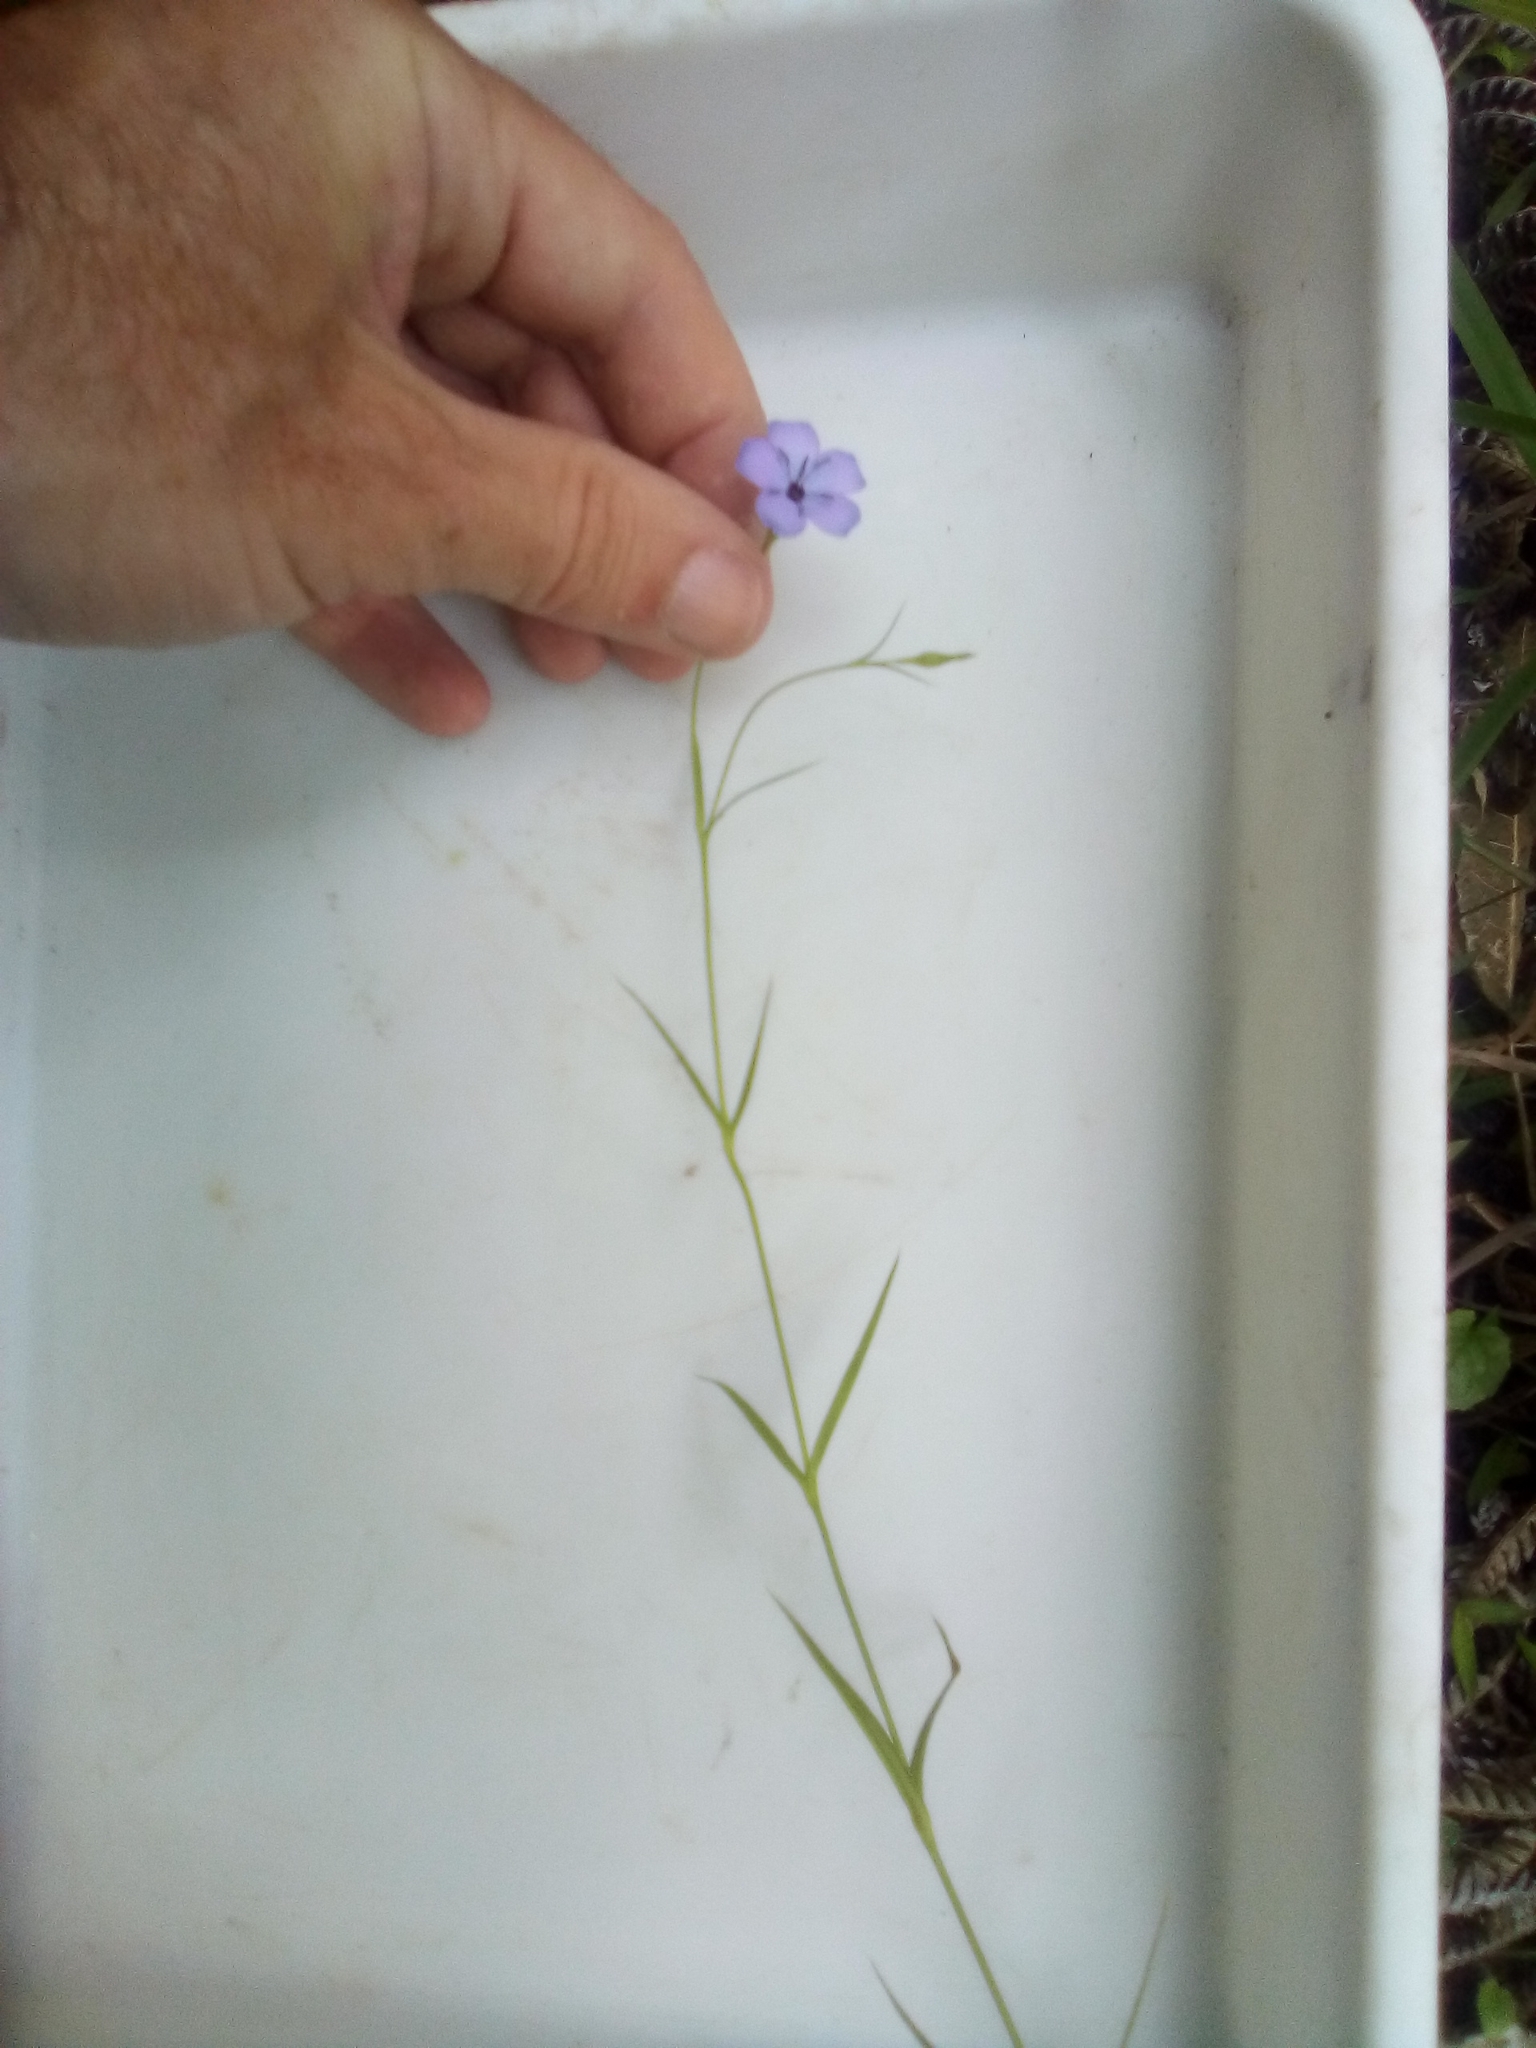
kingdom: Plantae
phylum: Tracheophyta
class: Magnoliopsida
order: Caryophyllales
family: Caryophyllaceae
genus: Eudianthe
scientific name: Eudianthe coeli-rosa
